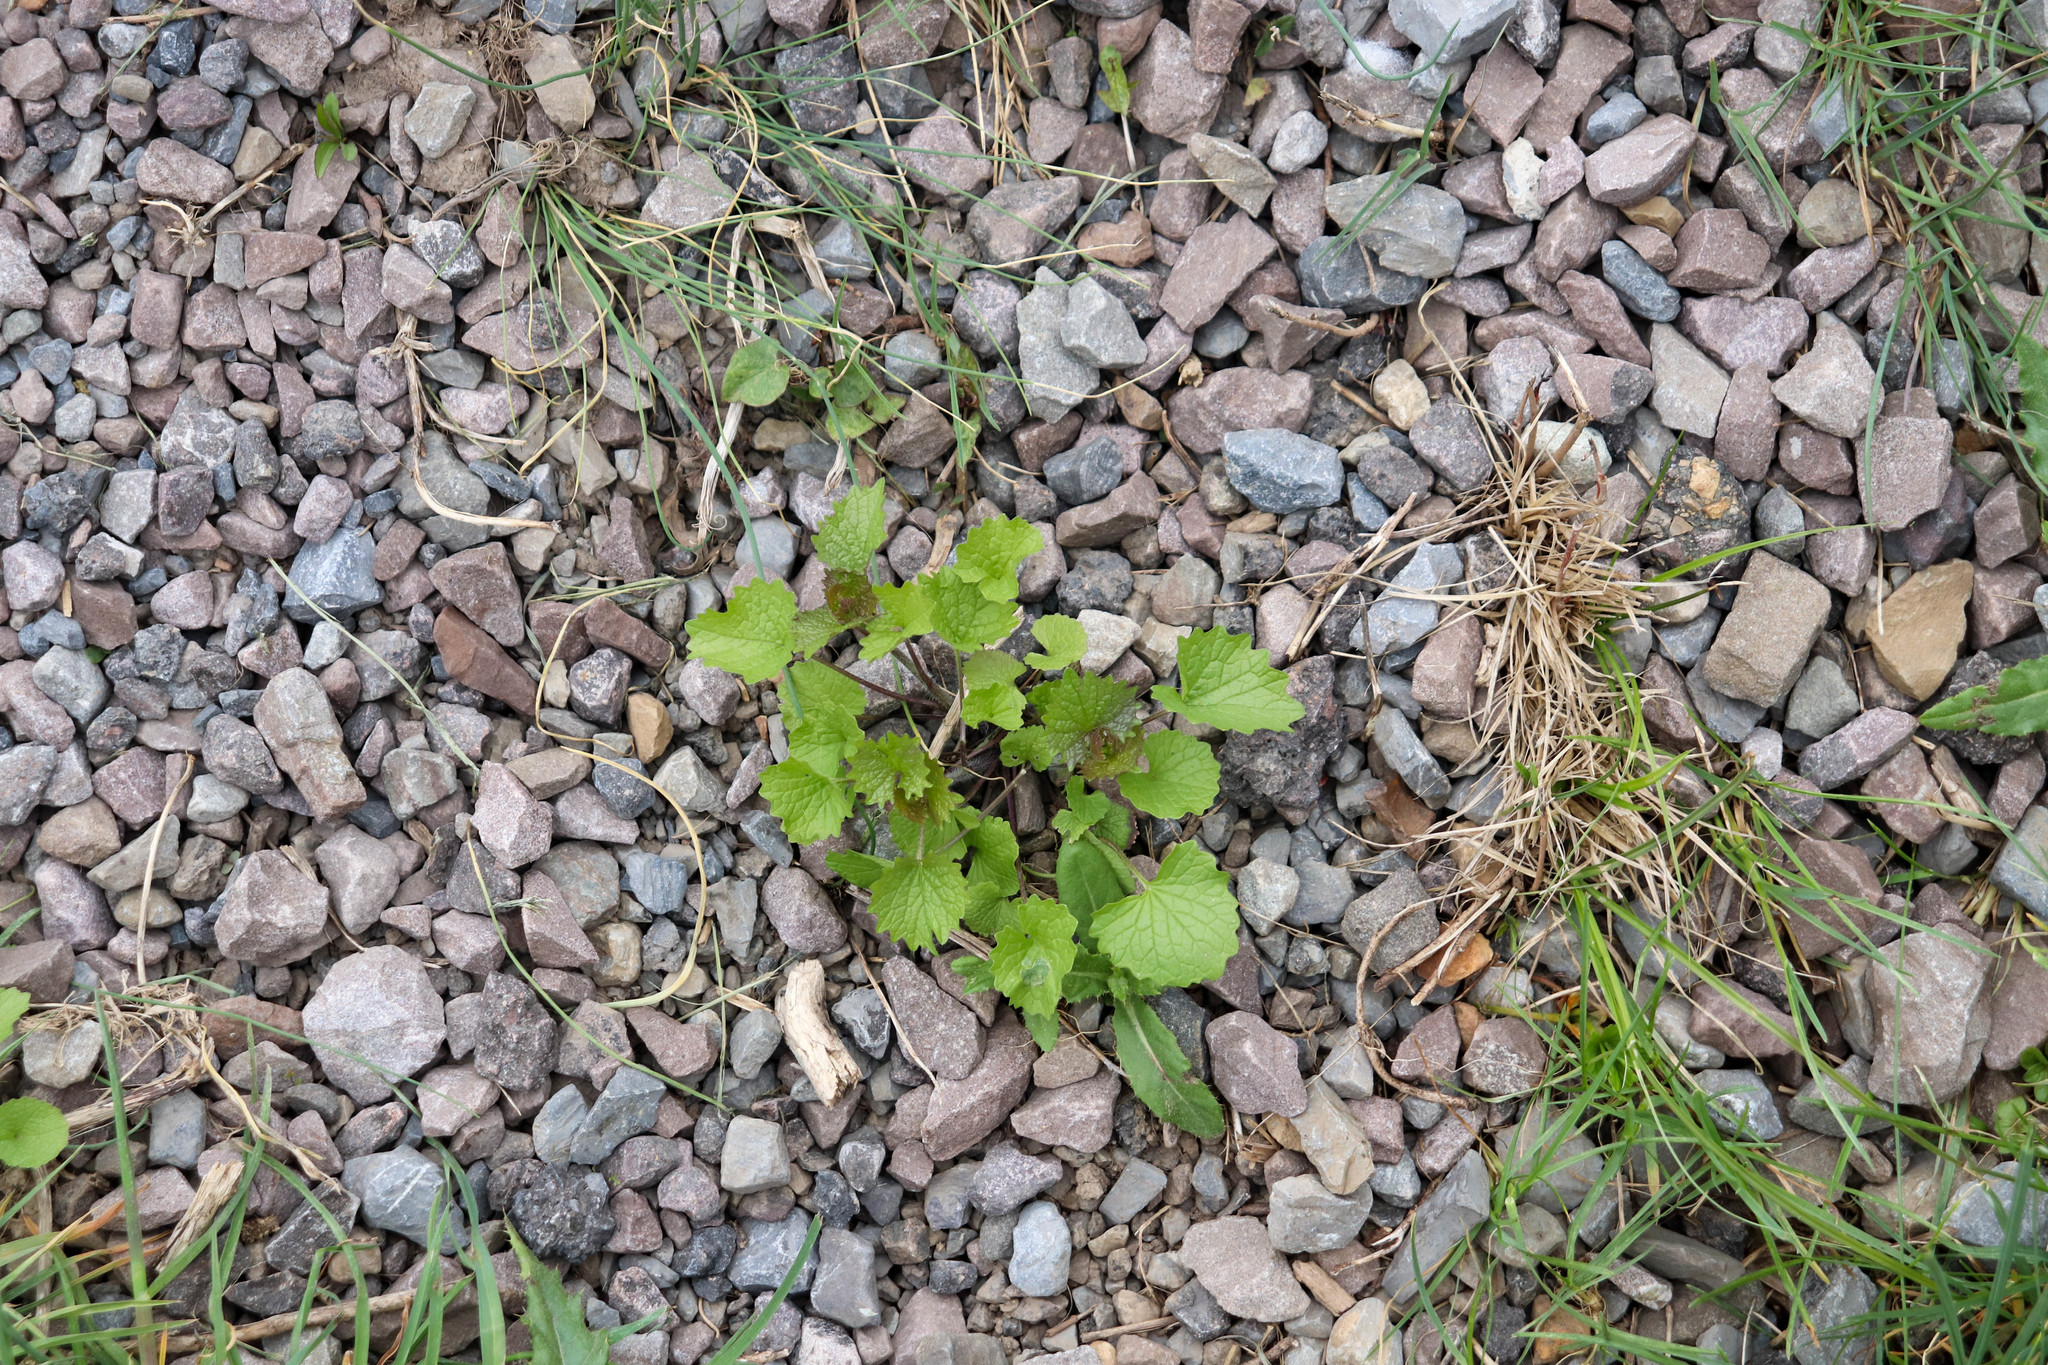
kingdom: Plantae
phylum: Tracheophyta
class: Magnoliopsida
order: Brassicales
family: Brassicaceae
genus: Alliaria
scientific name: Alliaria petiolata
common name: Garlic mustard
